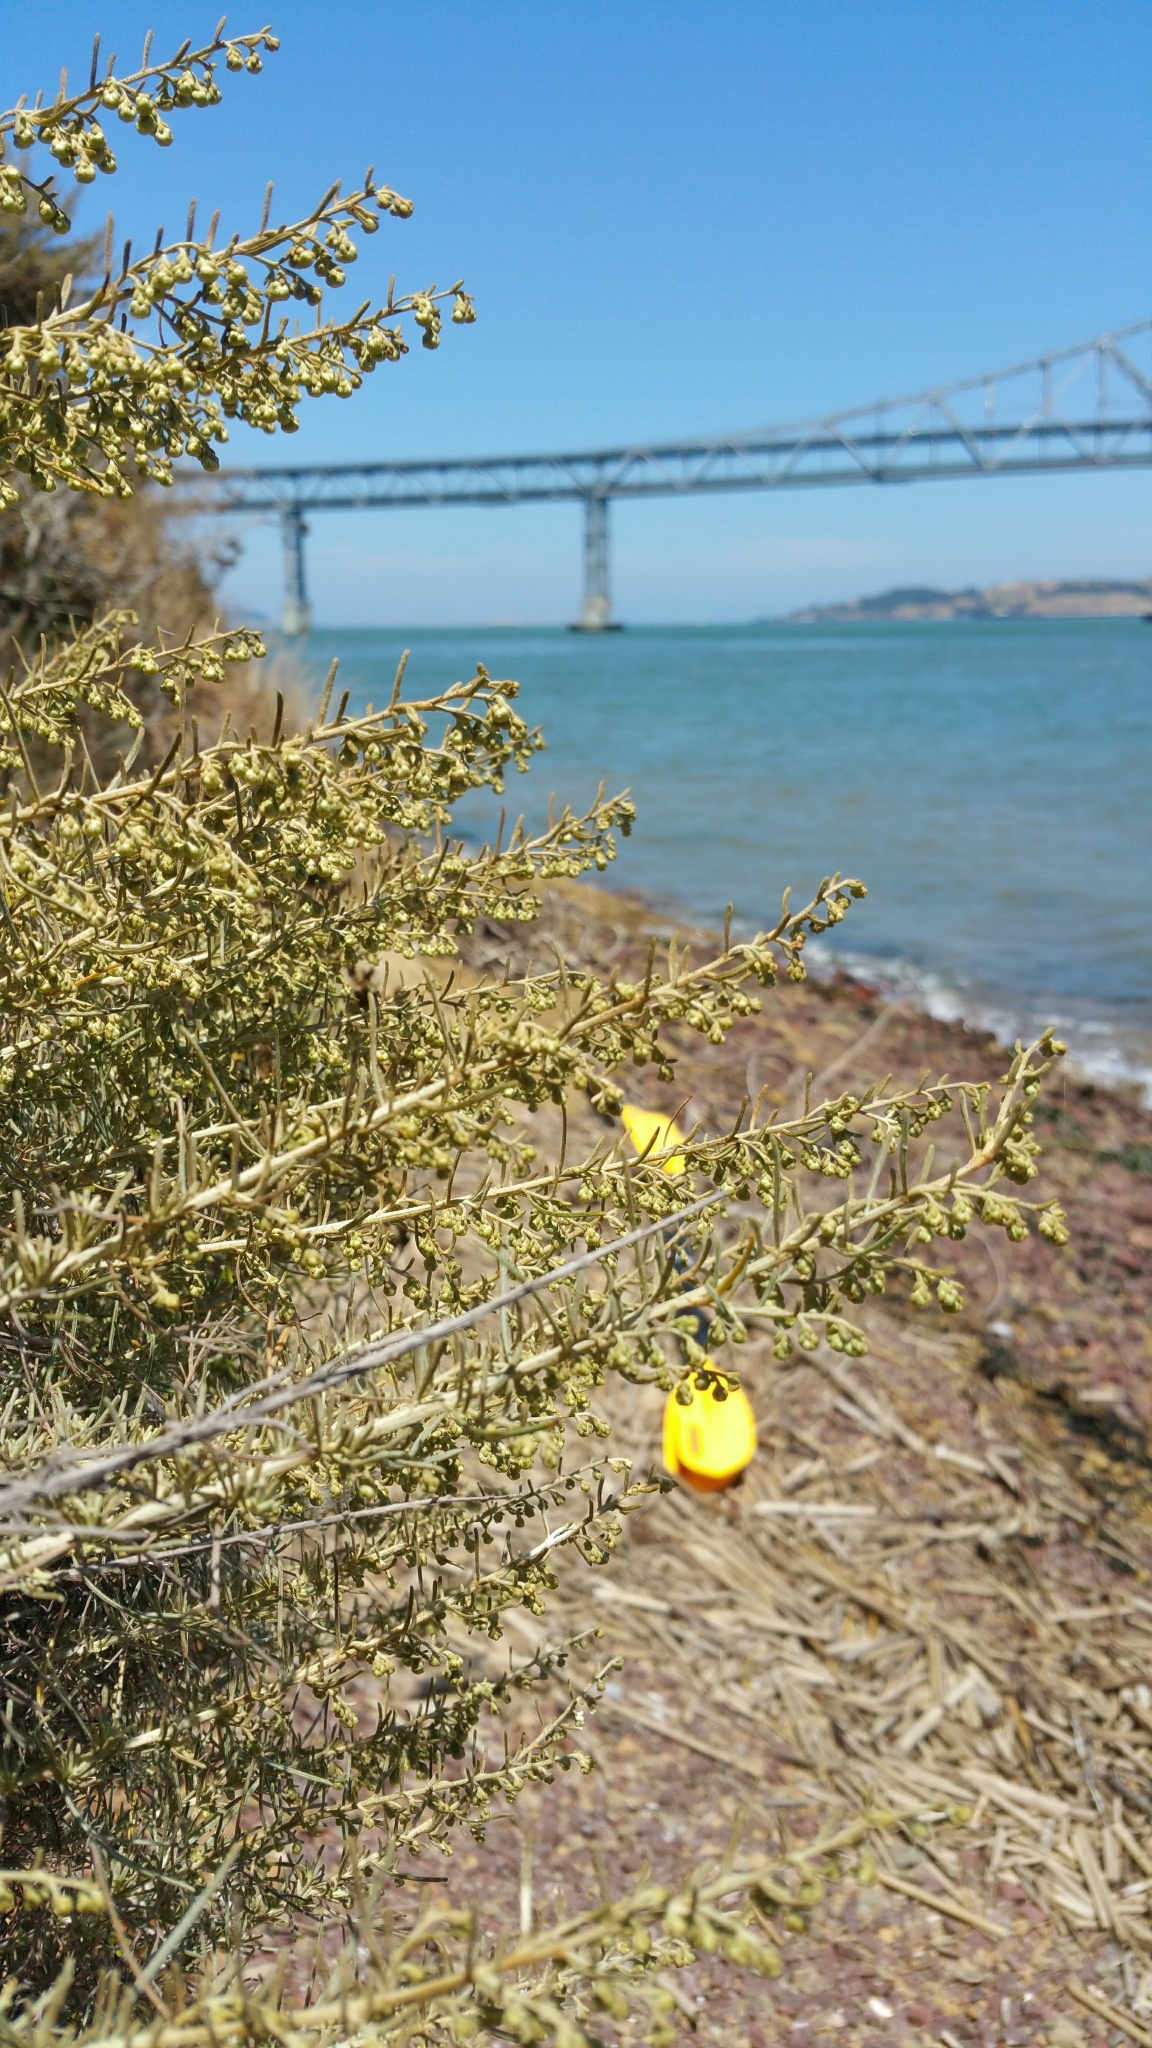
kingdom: Plantae
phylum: Tracheophyta
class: Magnoliopsida
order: Asterales
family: Asteraceae
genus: Artemisia
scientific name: Artemisia californica
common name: California sagebrush
